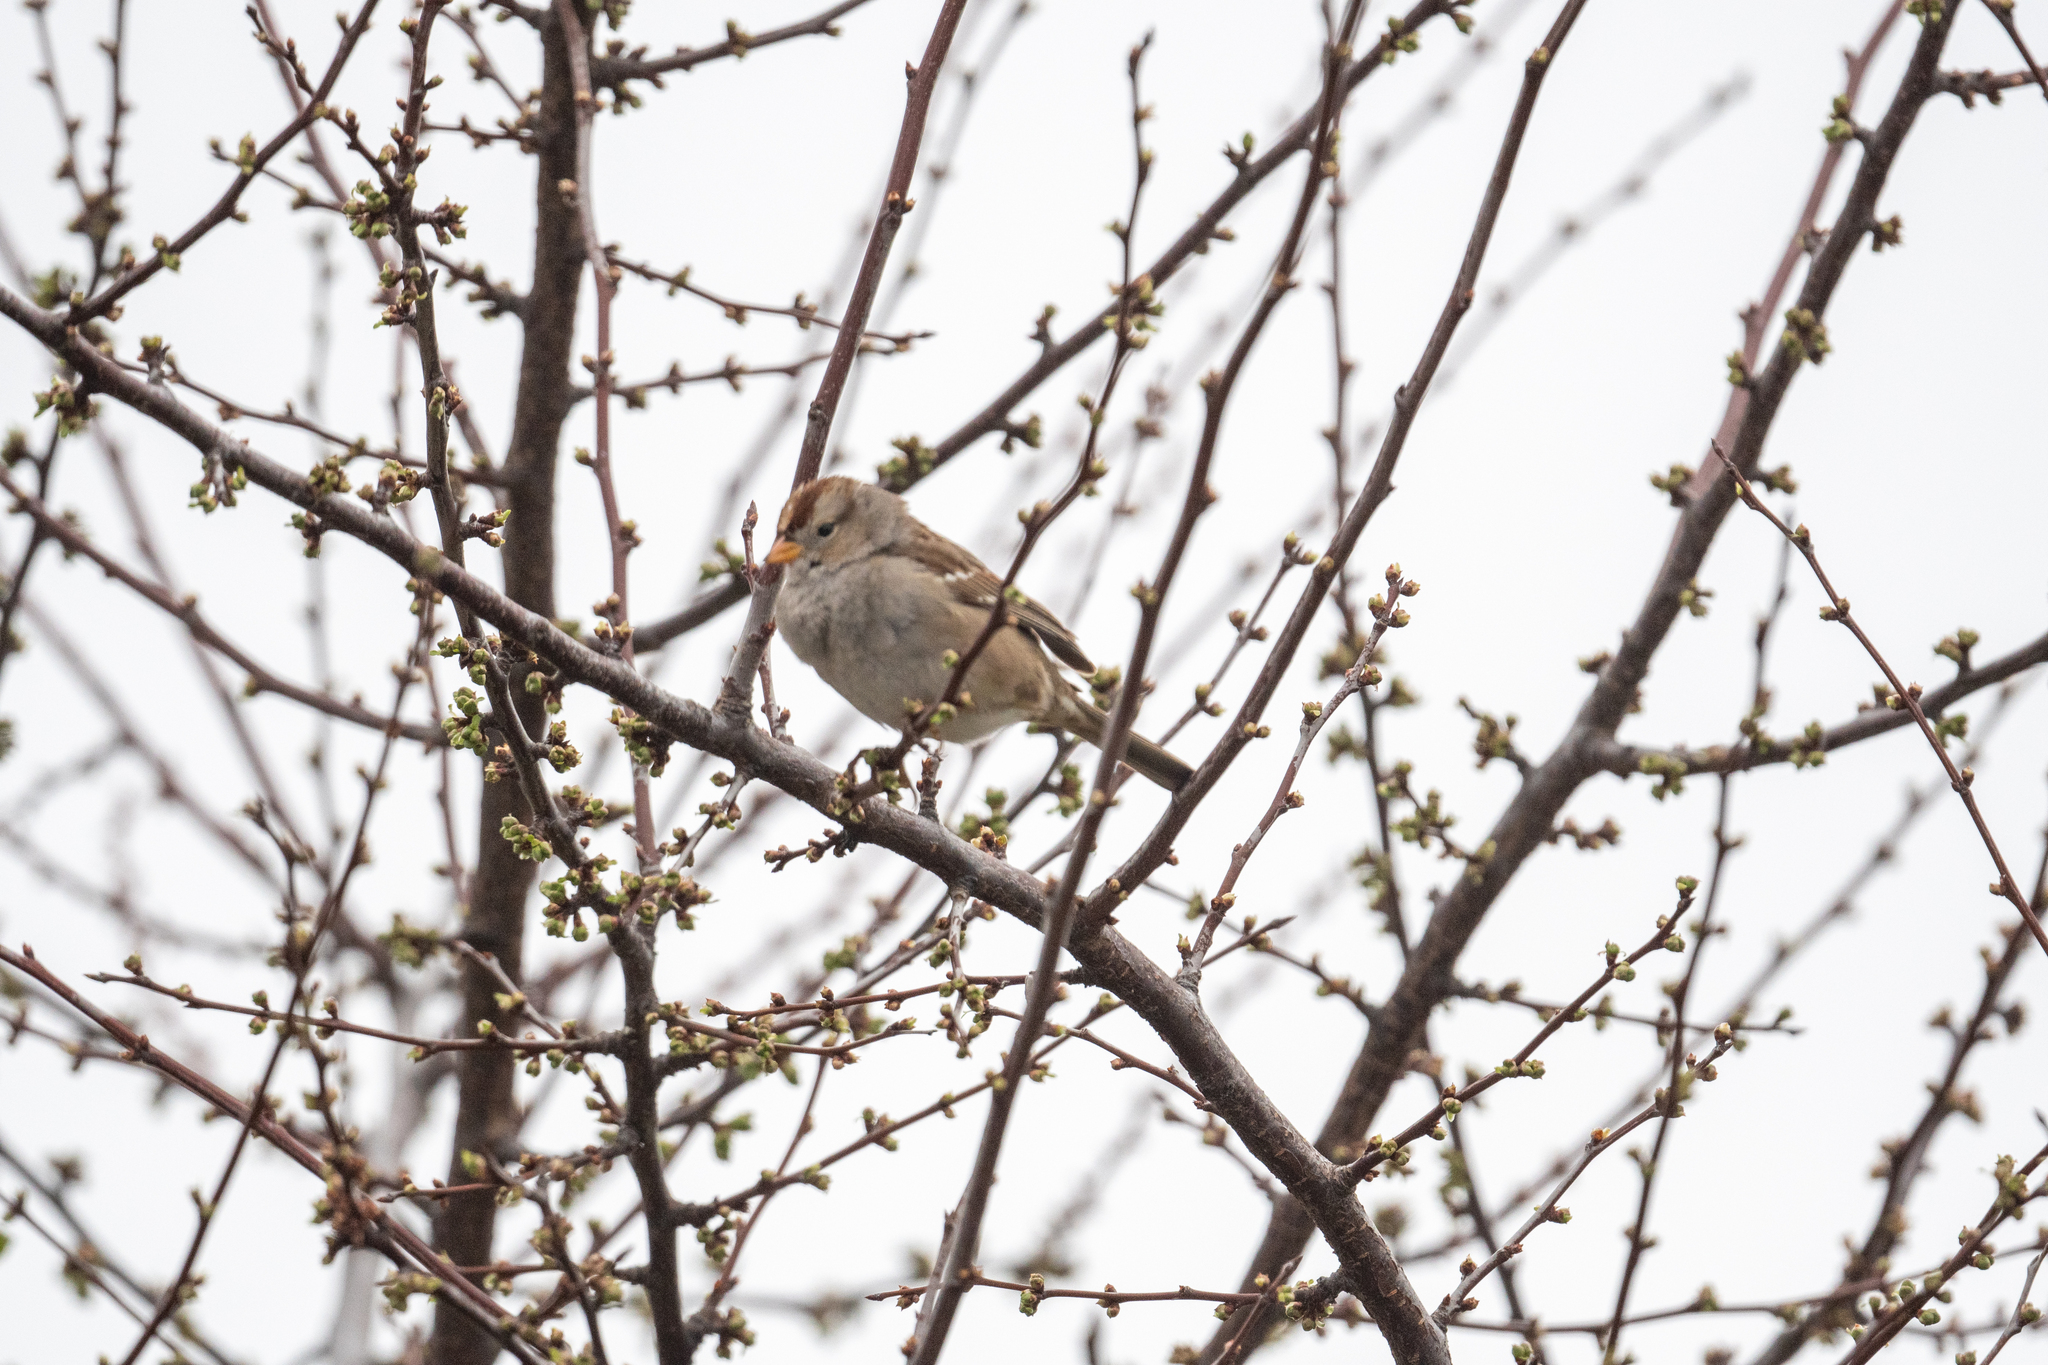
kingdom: Animalia
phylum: Chordata
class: Aves
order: Passeriformes
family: Passerellidae
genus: Zonotrichia
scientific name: Zonotrichia leucophrys
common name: White-crowned sparrow
